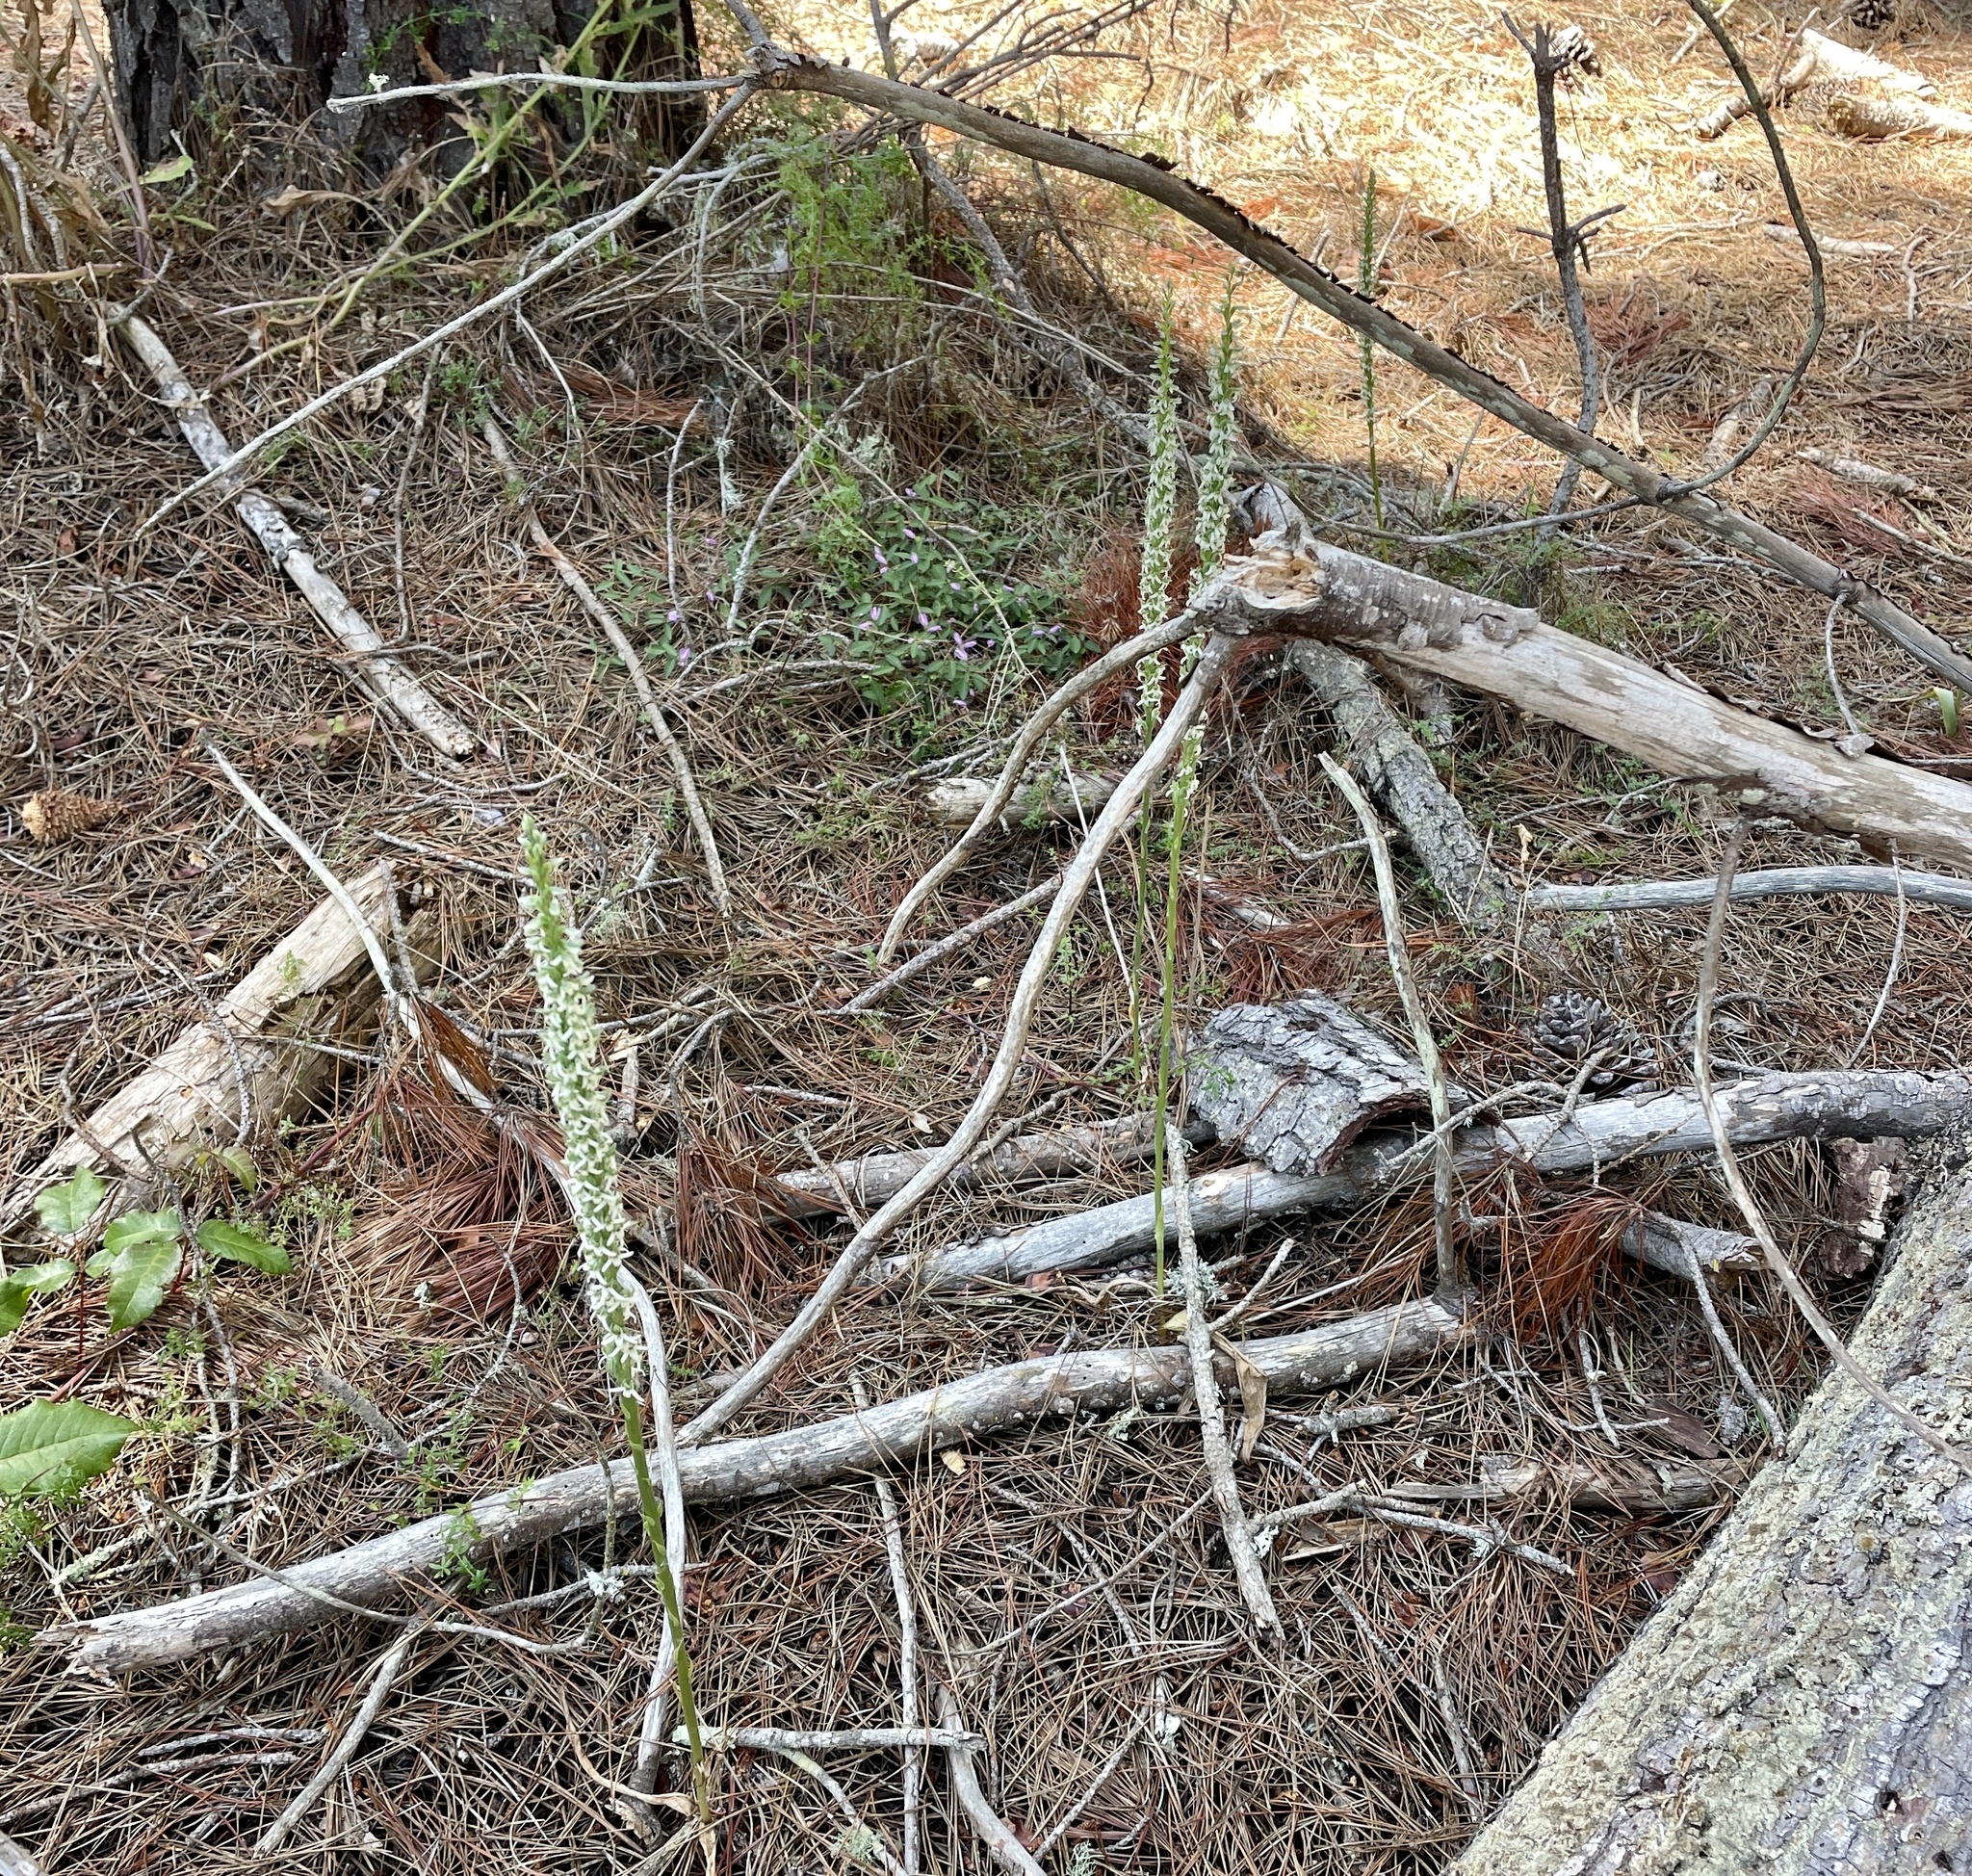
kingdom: Plantae
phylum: Tracheophyta
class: Liliopsida
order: Asparagales
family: Orchidaceae
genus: Platanthera
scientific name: Platanthera yadonii
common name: Yadon’s piperia
